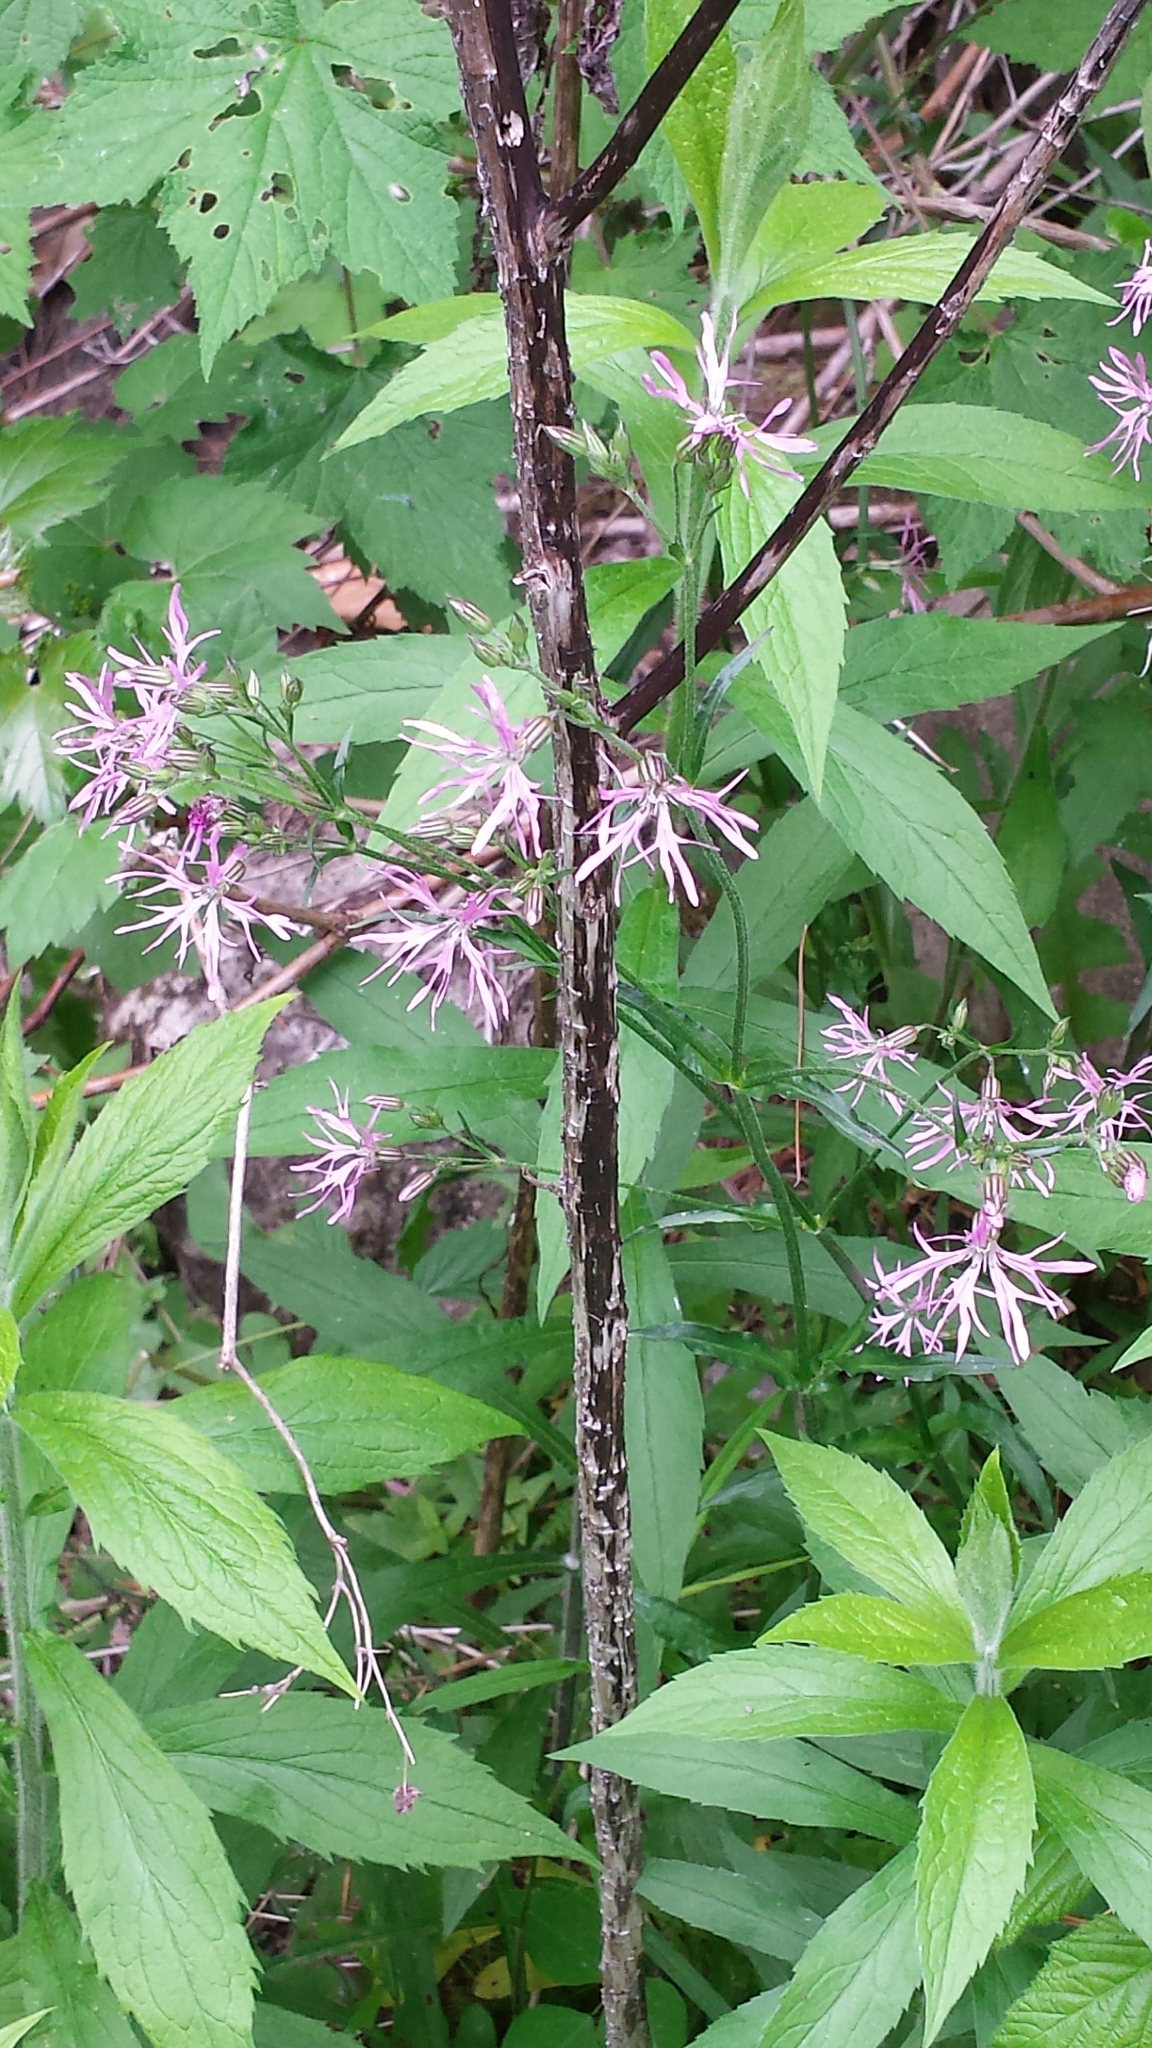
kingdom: Plantae
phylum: Tracheophyta
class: Magnoliopsida
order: Caryophyllales
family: Caryophyllaceae
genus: Silene
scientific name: Silene flos-cuculi
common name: Ragged-robin
